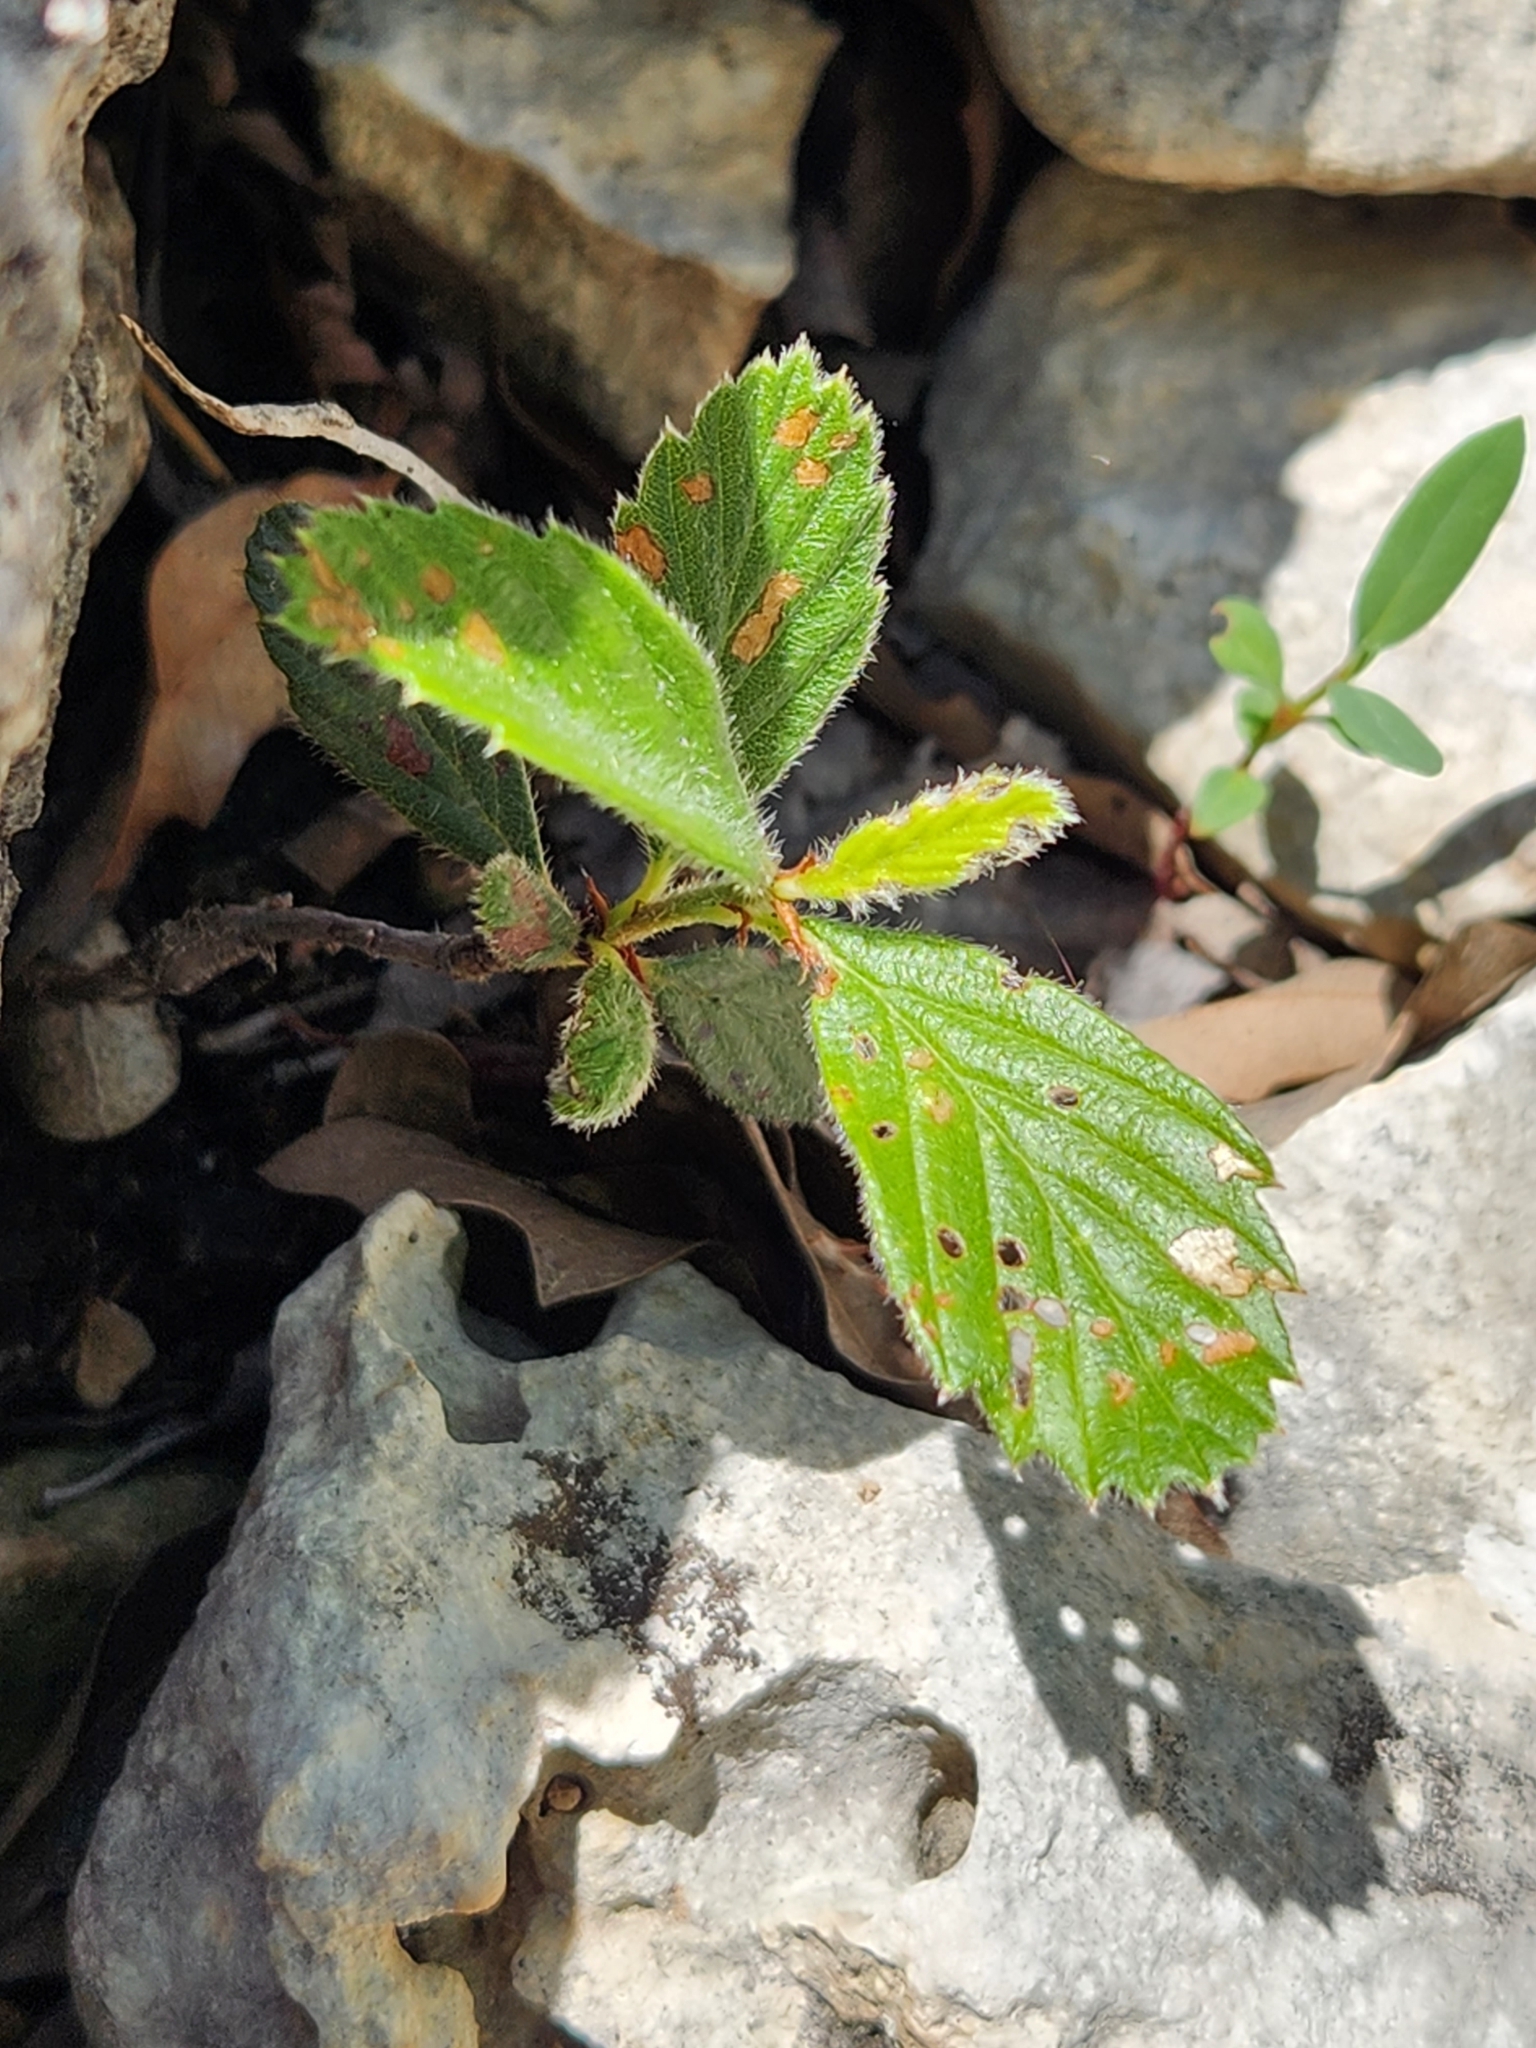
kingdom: Plantae
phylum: Tracheophyta
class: Magnoliopsida
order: Rosales
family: Rosaceae
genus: Cercocarpus
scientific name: Cercocarpus montanus
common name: Alder-leaf cercocarpus
